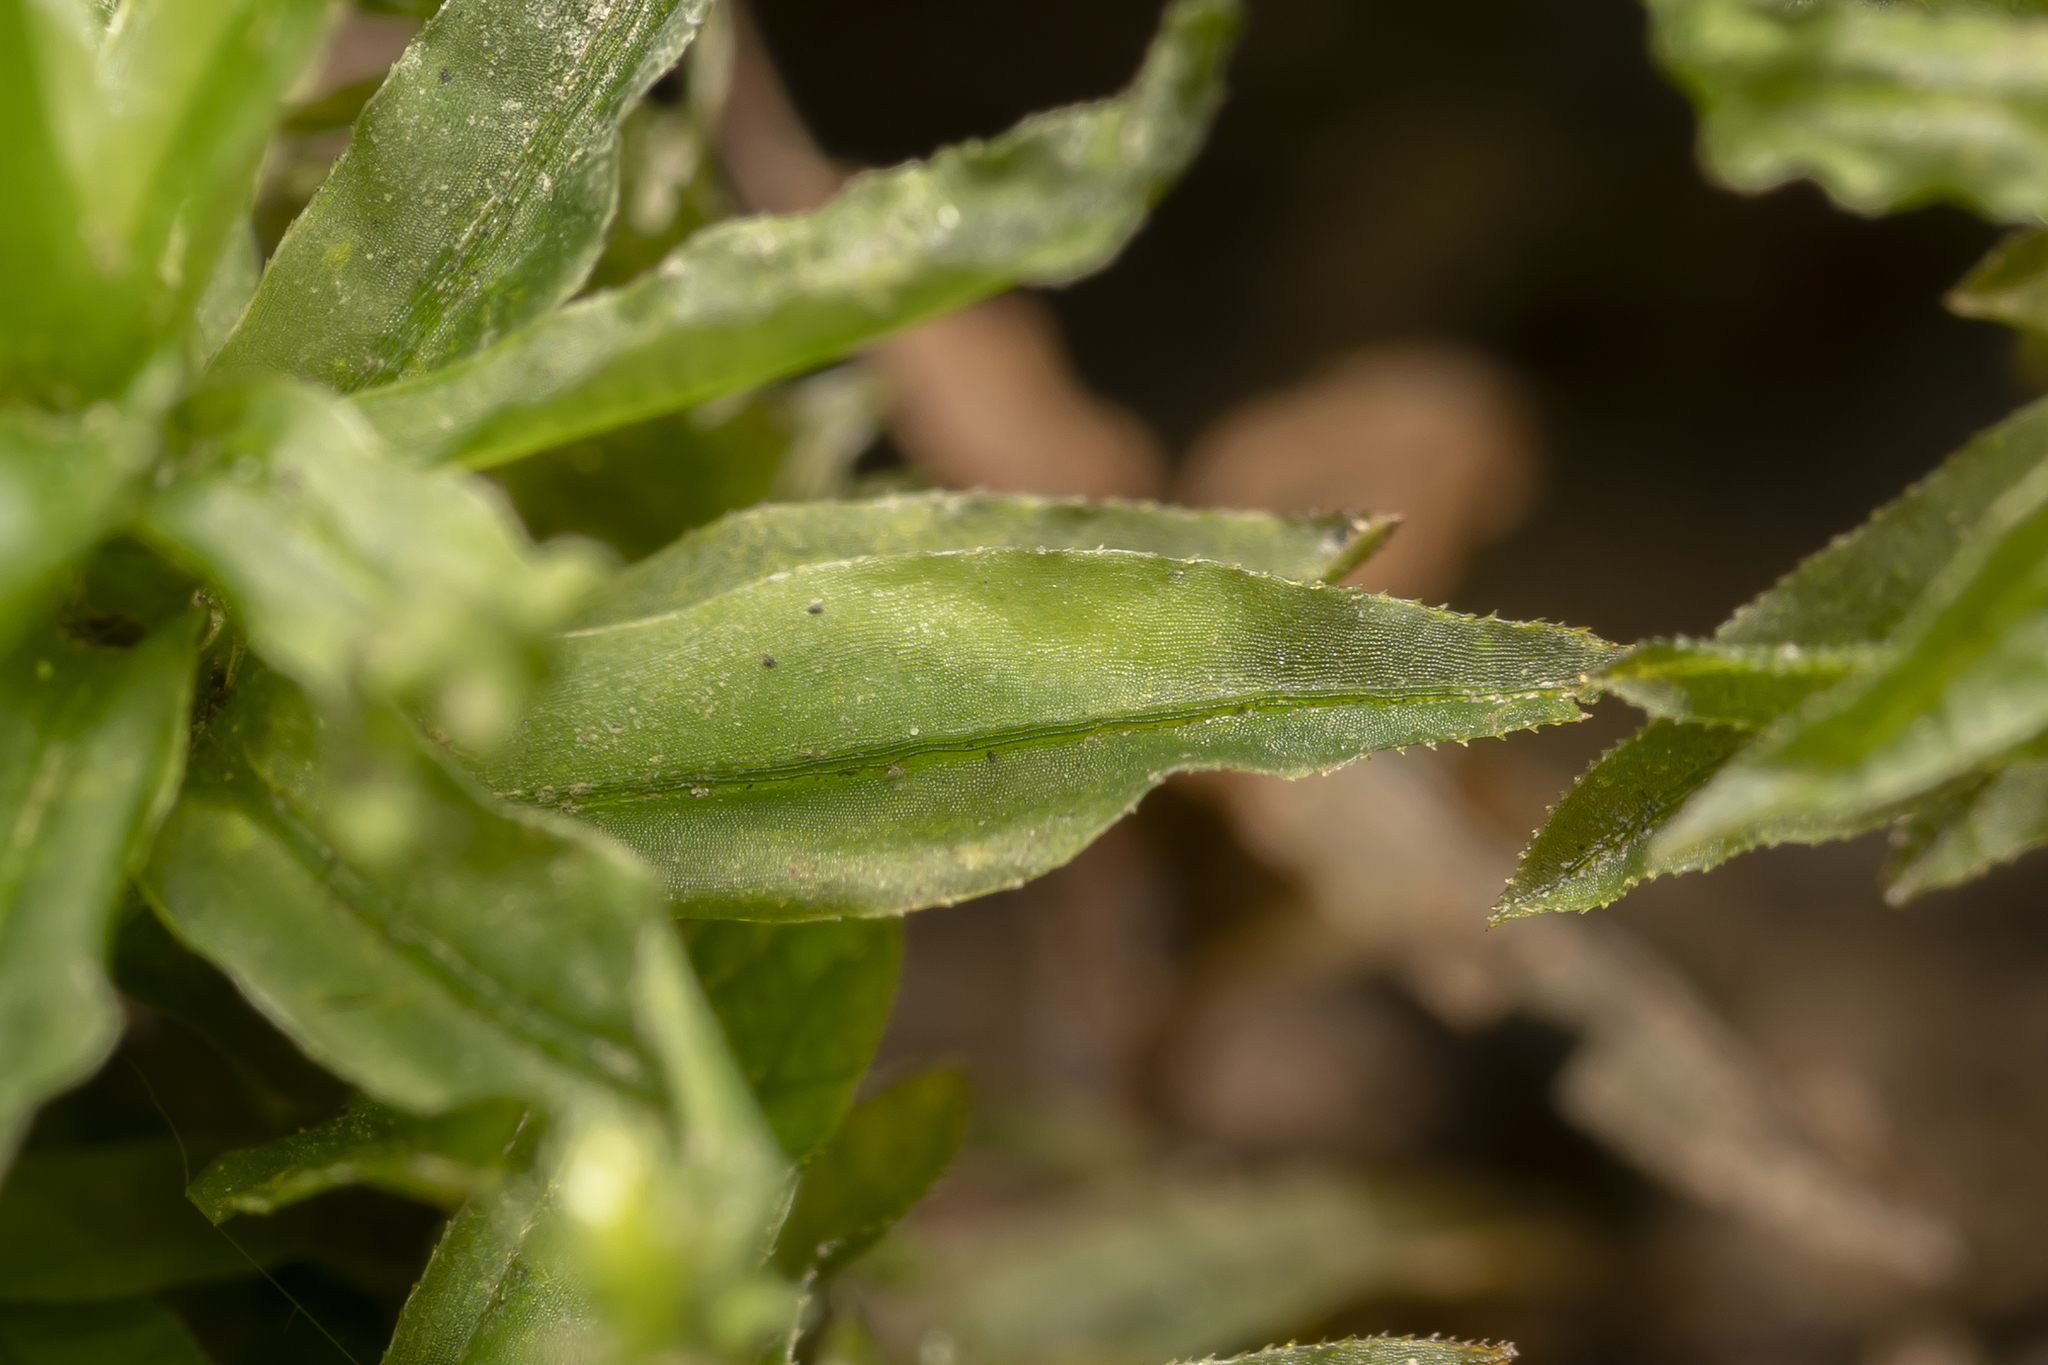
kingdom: Plantae
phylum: Bryophyta
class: Polytrichopsida
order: Polytrichales
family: Polytrichaceae
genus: Atrichum
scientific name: Atrichum undulatum
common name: Common smoothcap
